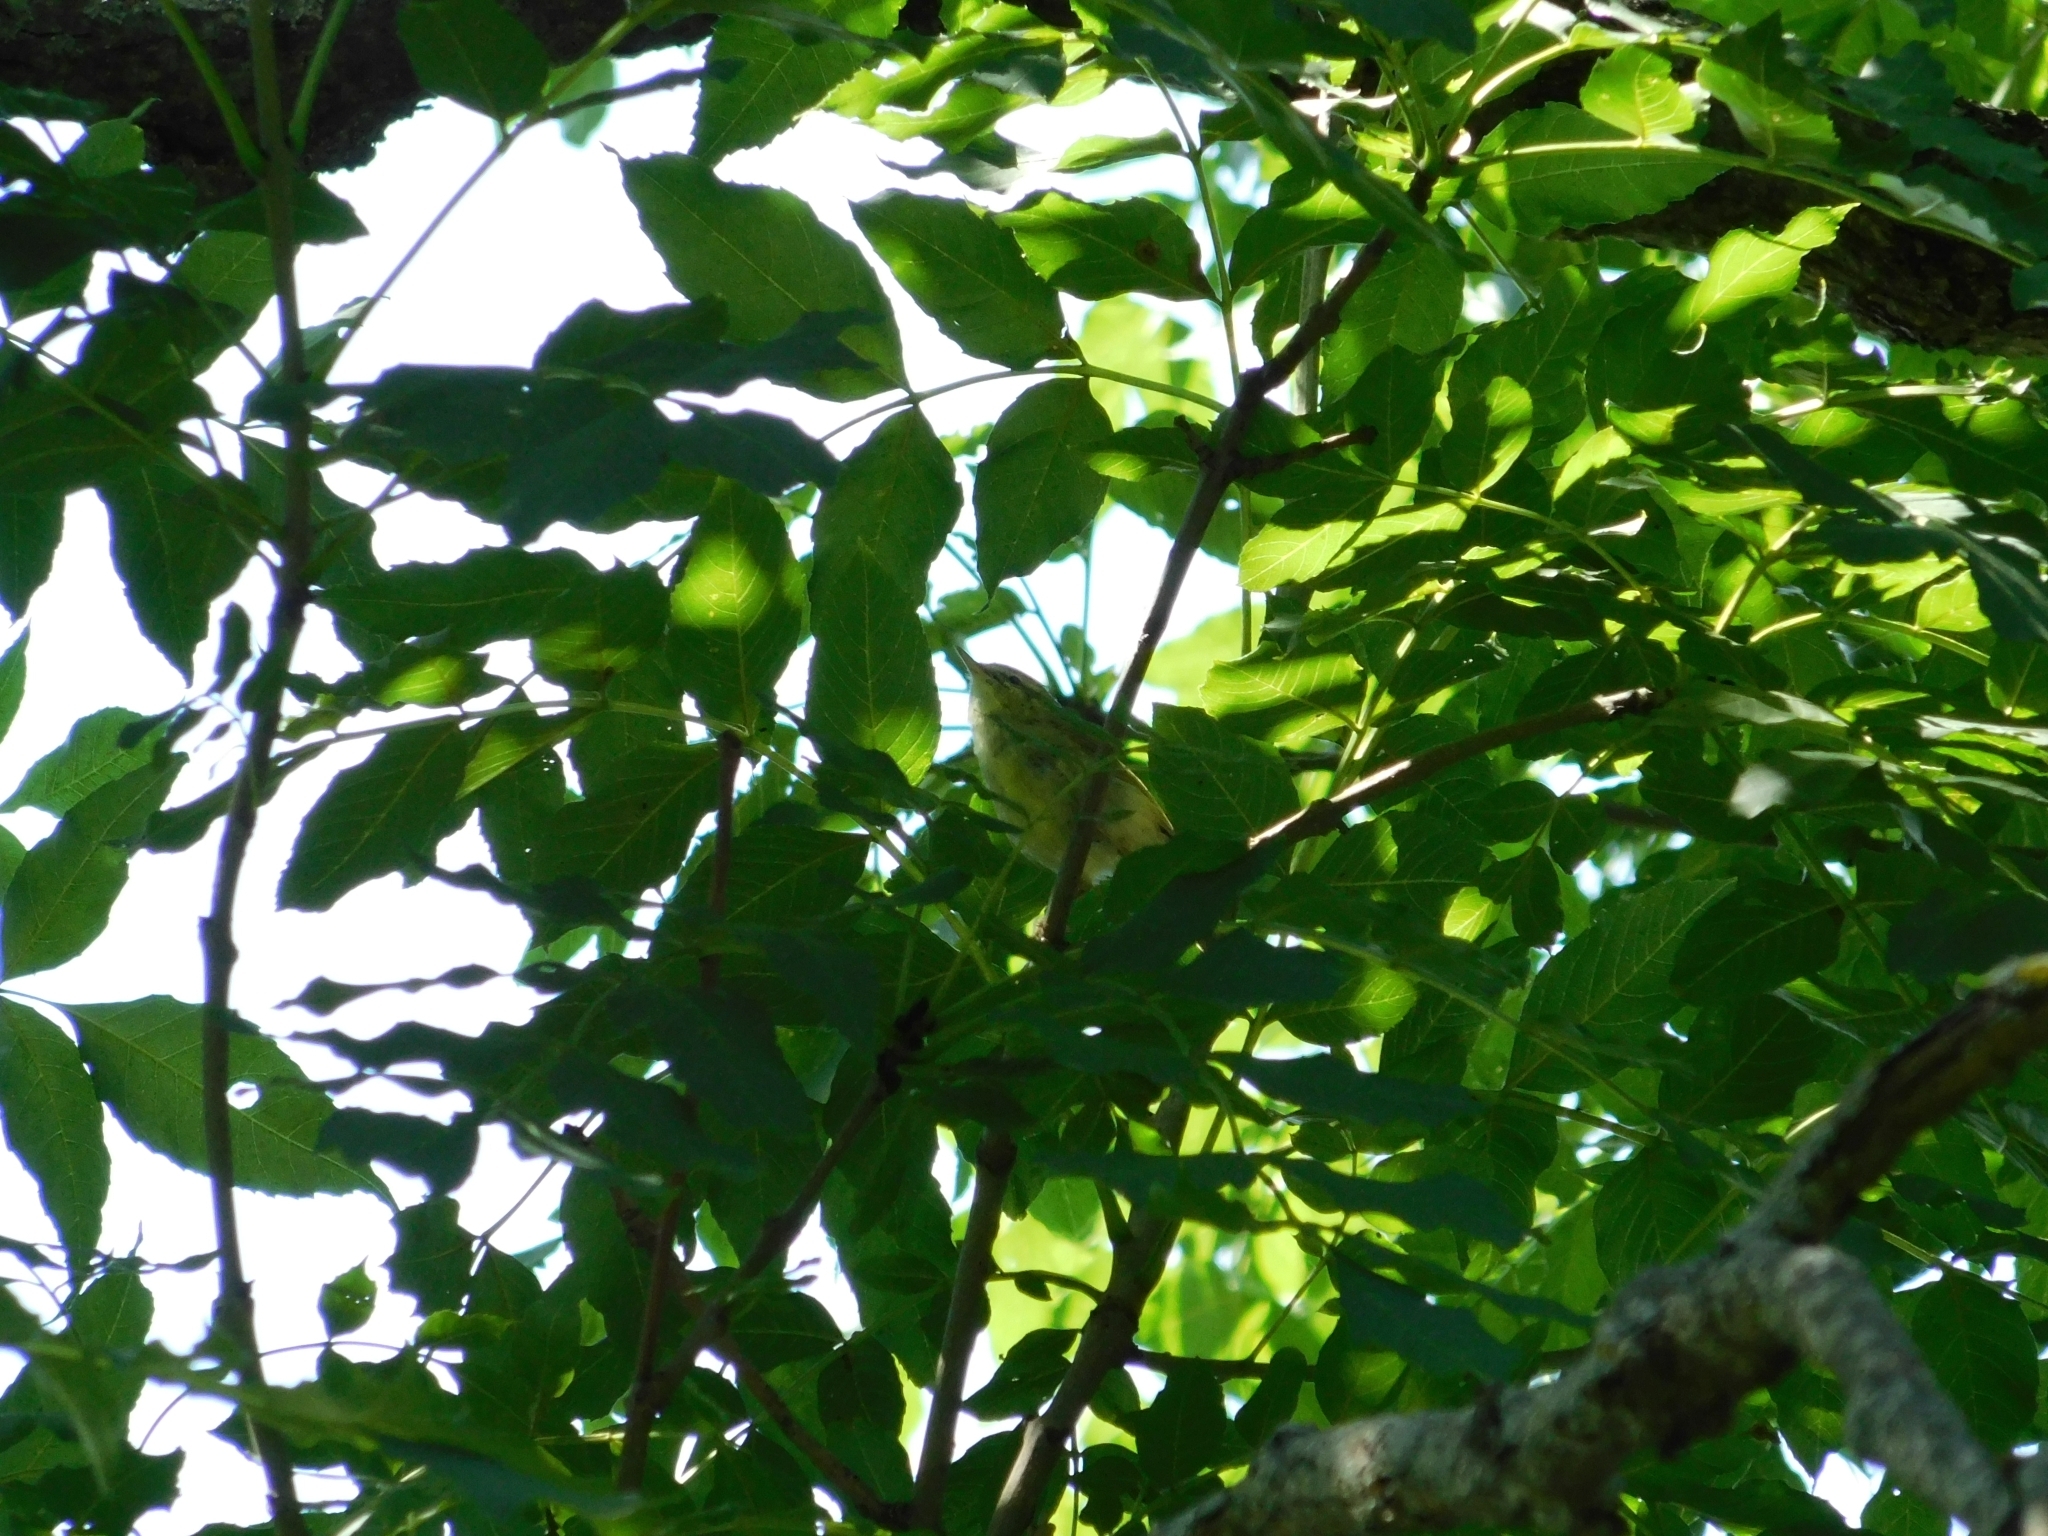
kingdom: Animalia
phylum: Chordata
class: Aves
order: Passeriformes
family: Phylloscopidae
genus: Phylloscopus
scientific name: Phylloscopus nitidus
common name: Green warbler
